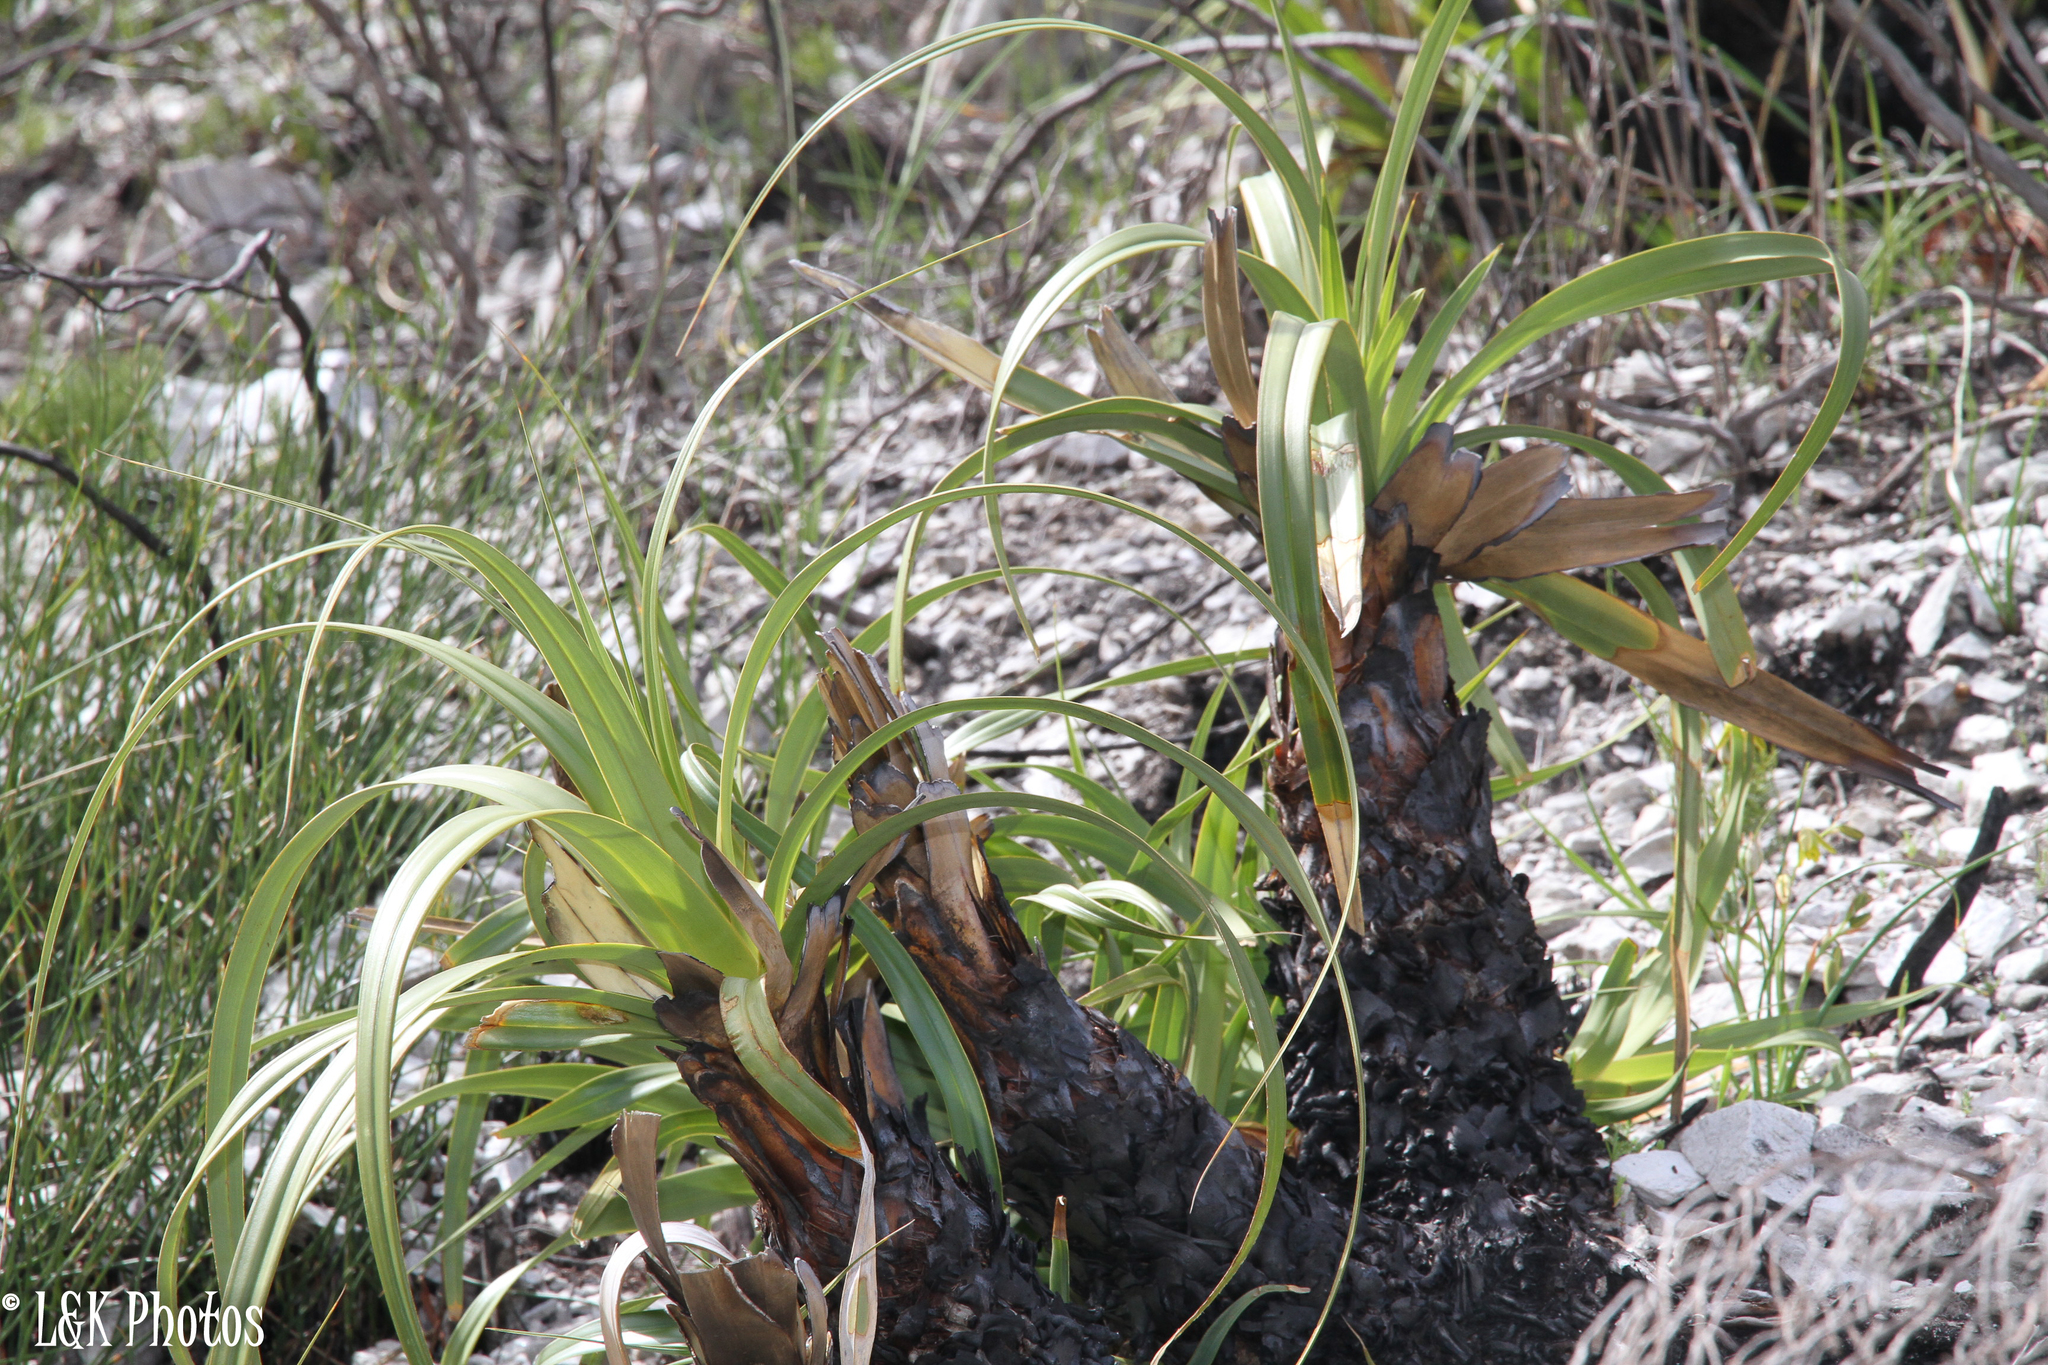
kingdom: Plantae
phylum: Tracheophyta
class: Liliopsida
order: Poales
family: Cyperaceae
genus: Tetraria
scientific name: Tetraria thermalis
